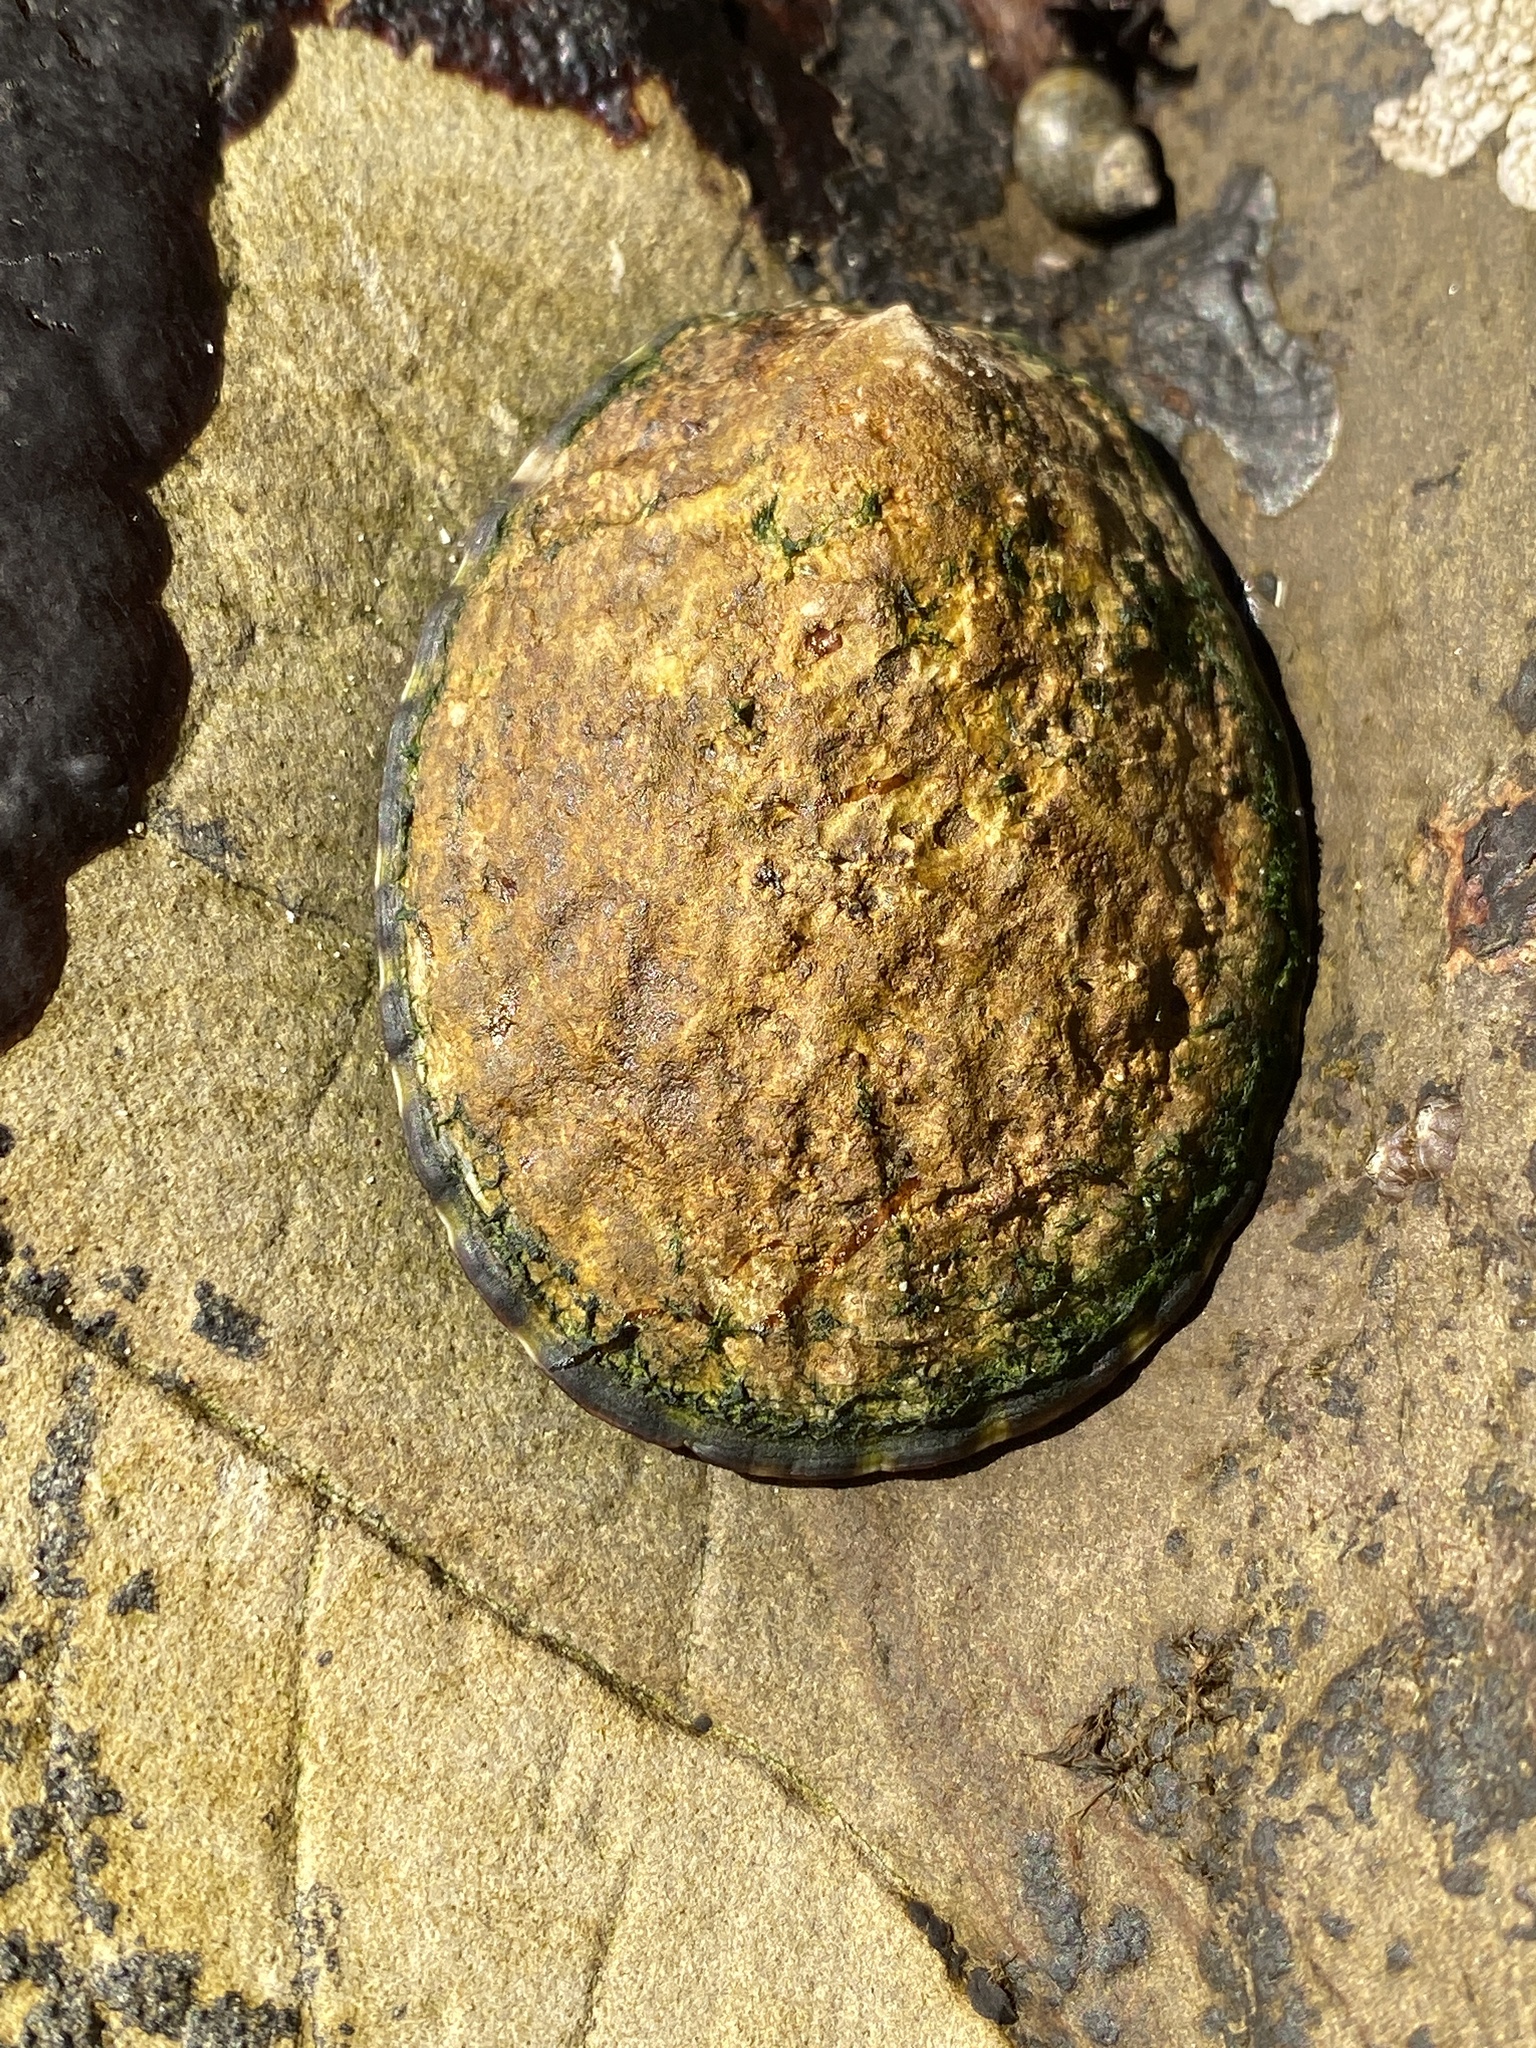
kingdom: Animalia
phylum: Mollusca
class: Gastropoda
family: Lottiidae
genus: Lottia
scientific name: Lottia gigantea
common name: Owl limpet
